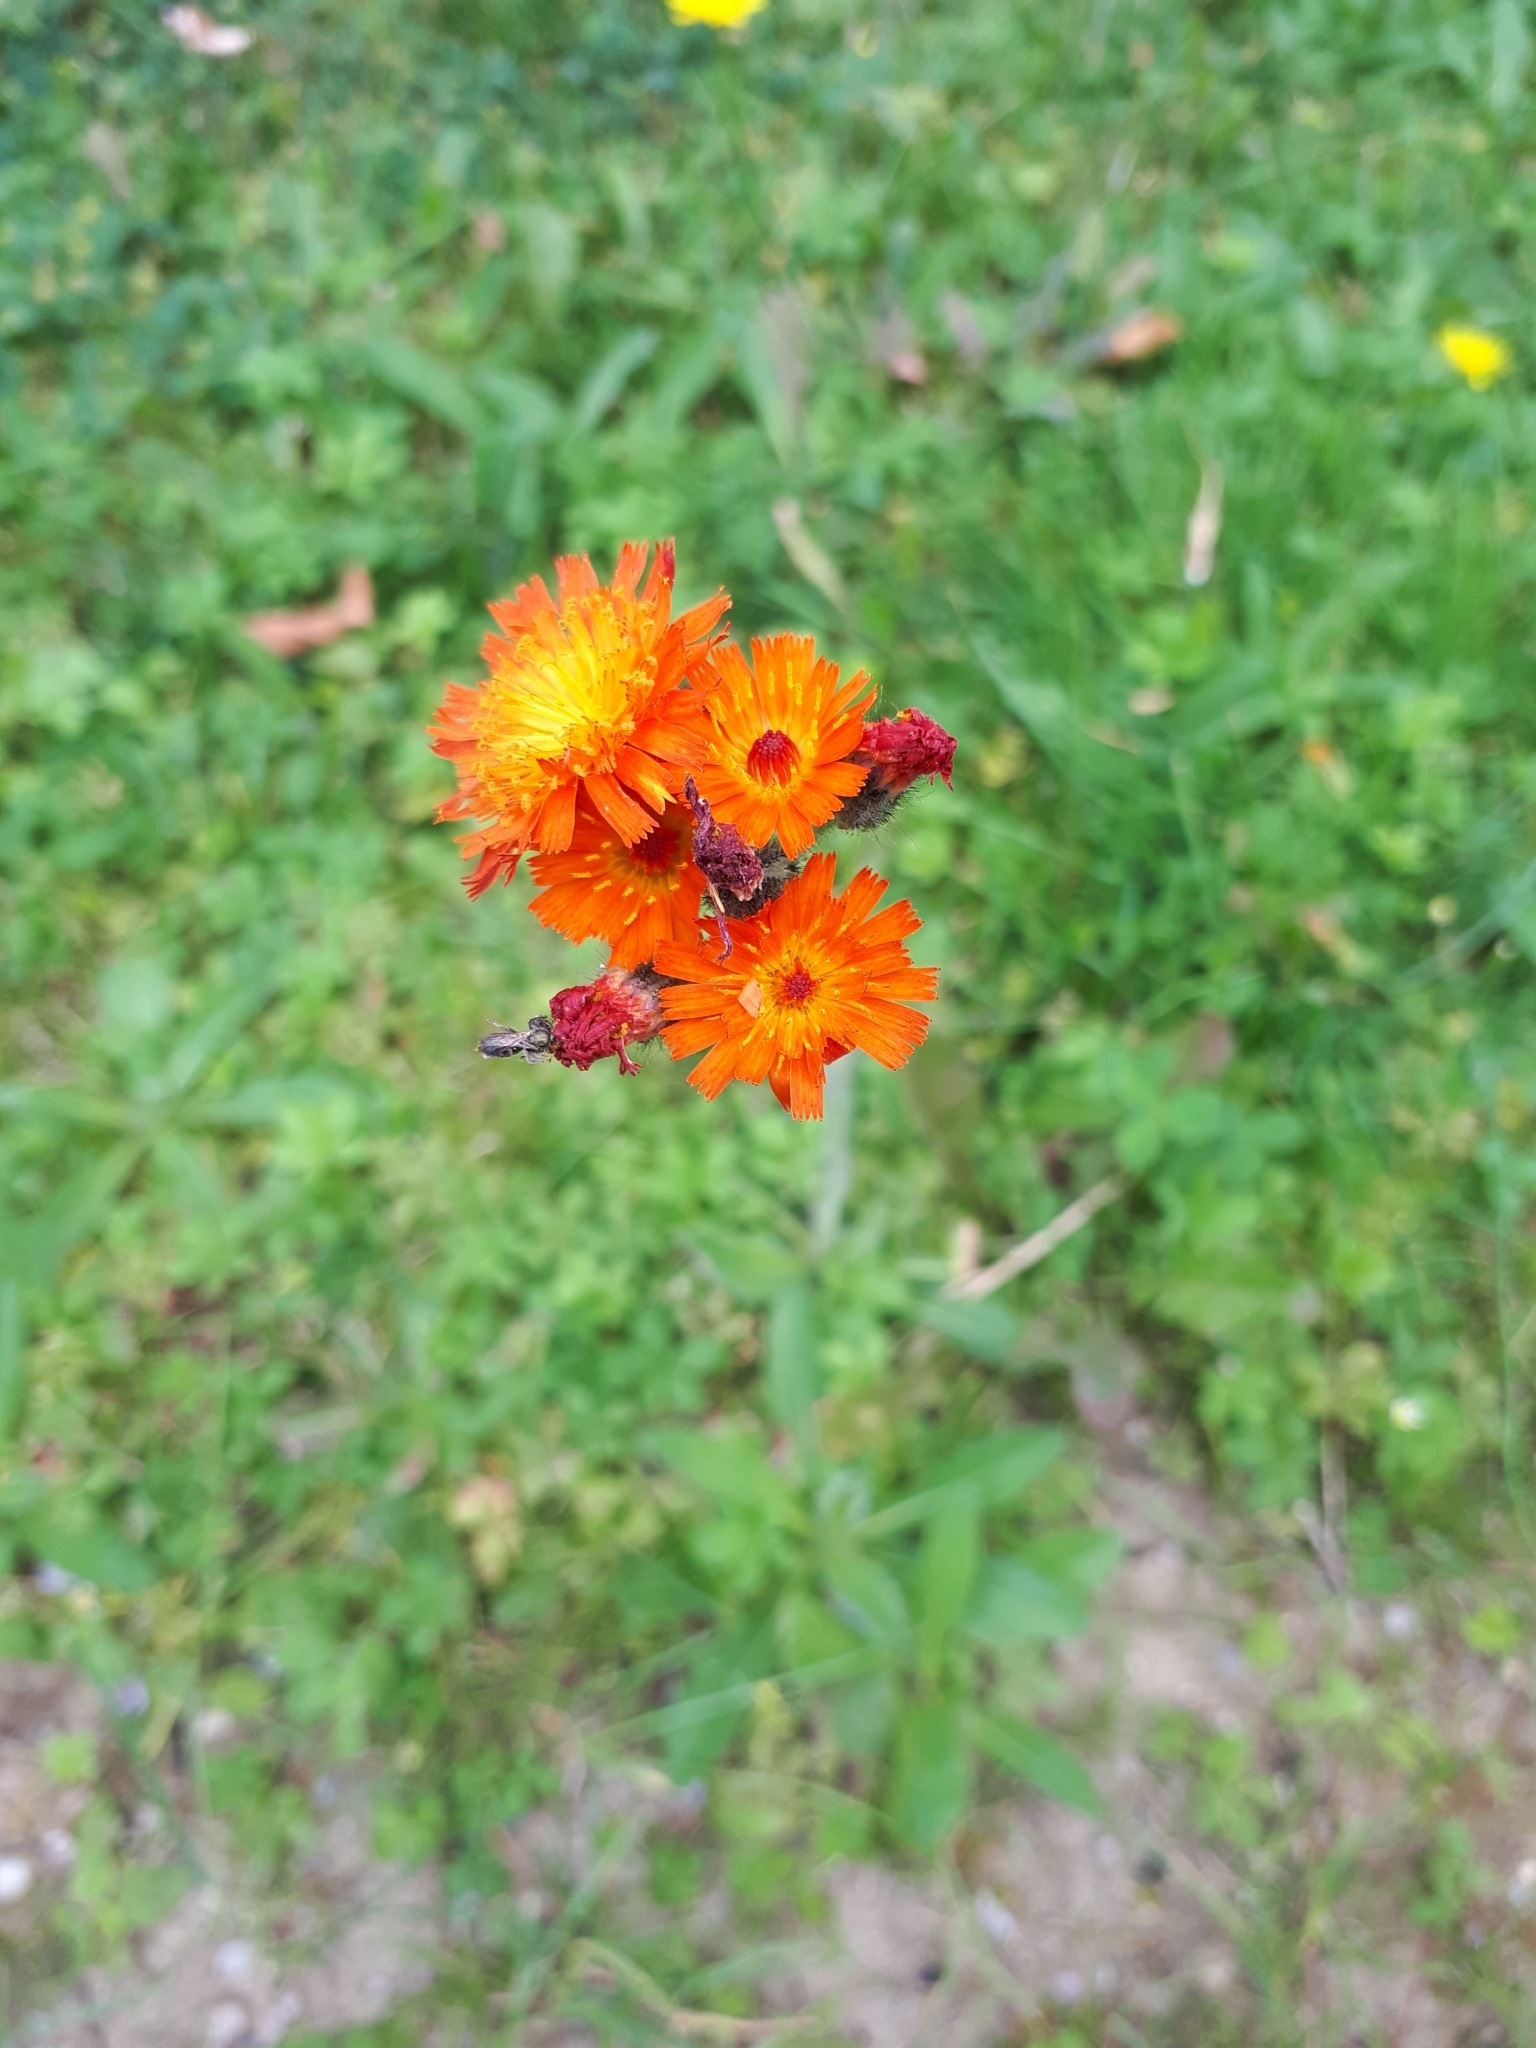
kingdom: Plantae
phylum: Tracheophyta
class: Magnoliopsida
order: Asterales
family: Asteraceae
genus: Pilosella
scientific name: Pilosella aurantiaca
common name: Fox-and-cubs
